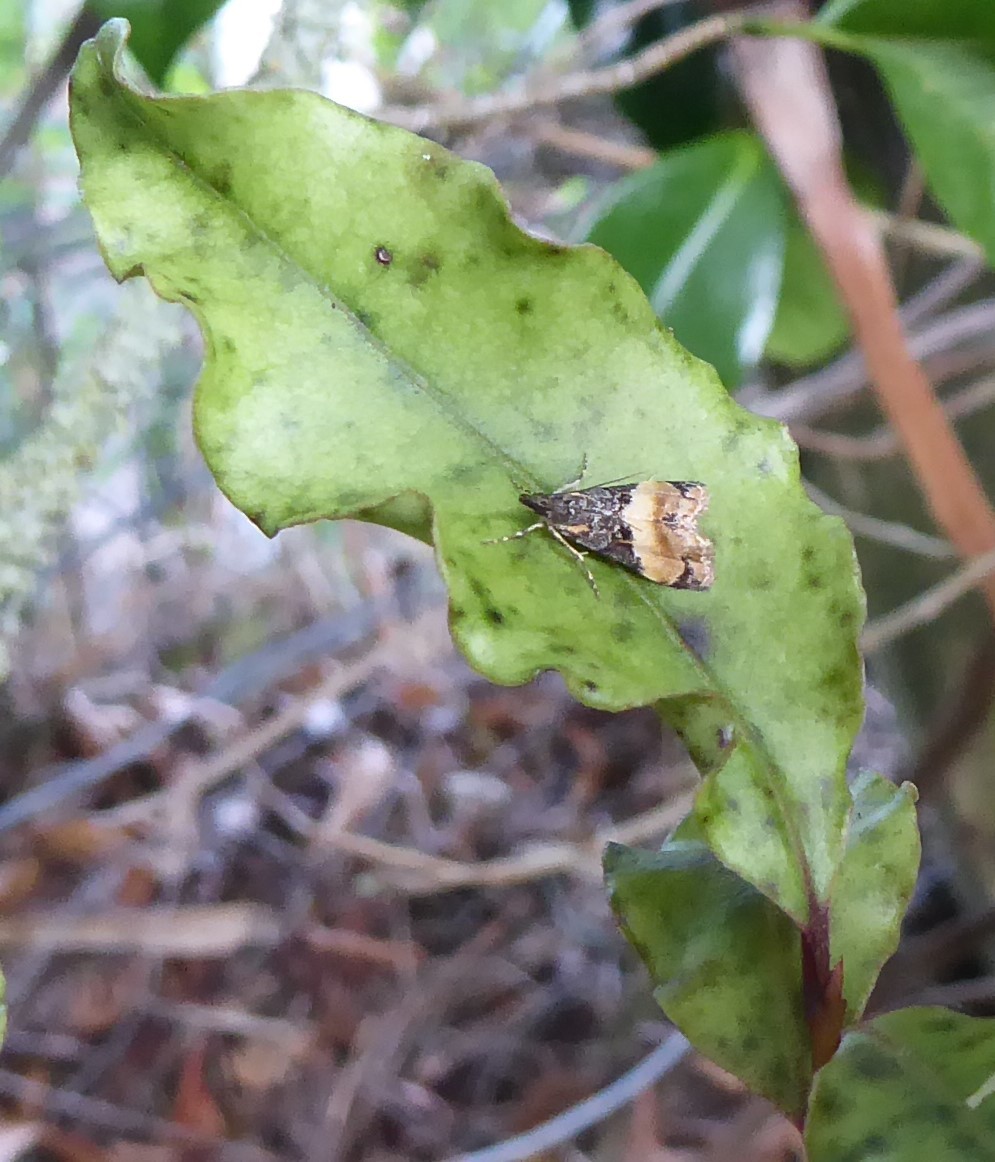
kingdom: Animalia
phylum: Arthropoda
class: Insecta
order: Lepidoptera
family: Crambidae
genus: Eudonia
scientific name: Eudonia chlamydota
